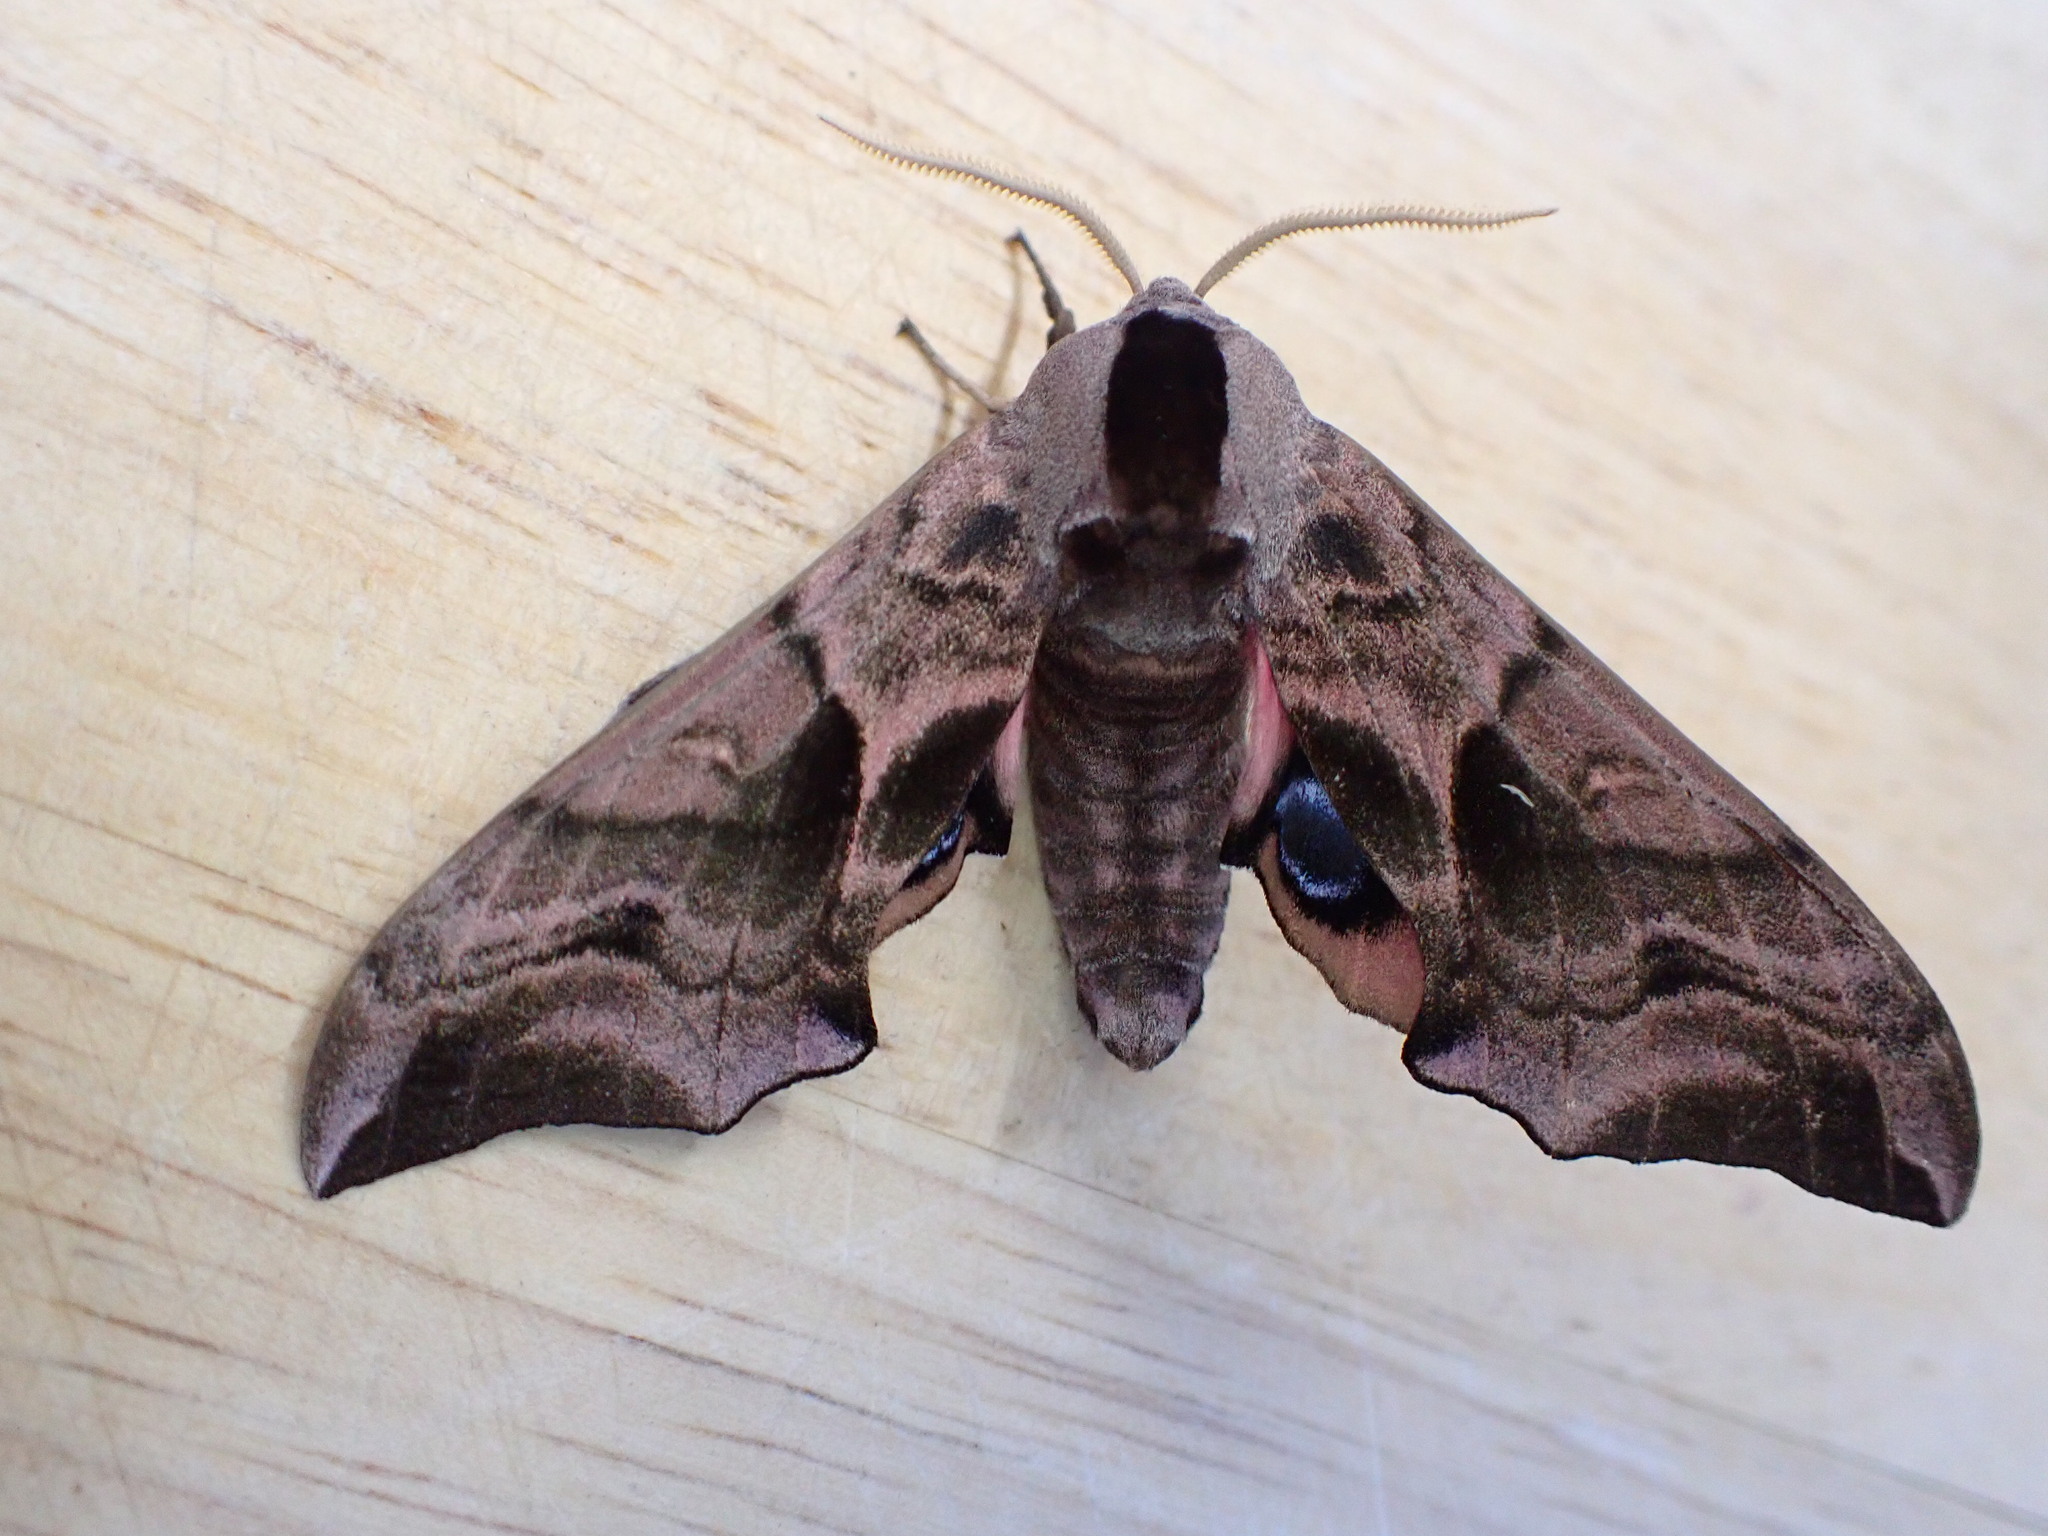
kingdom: Animalia
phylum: Arthropoda
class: Insecta
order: Lepidoptera
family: Sphingidae
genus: Smerinthus
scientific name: Smerinthus ocellata
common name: Eyed hawk-moth
